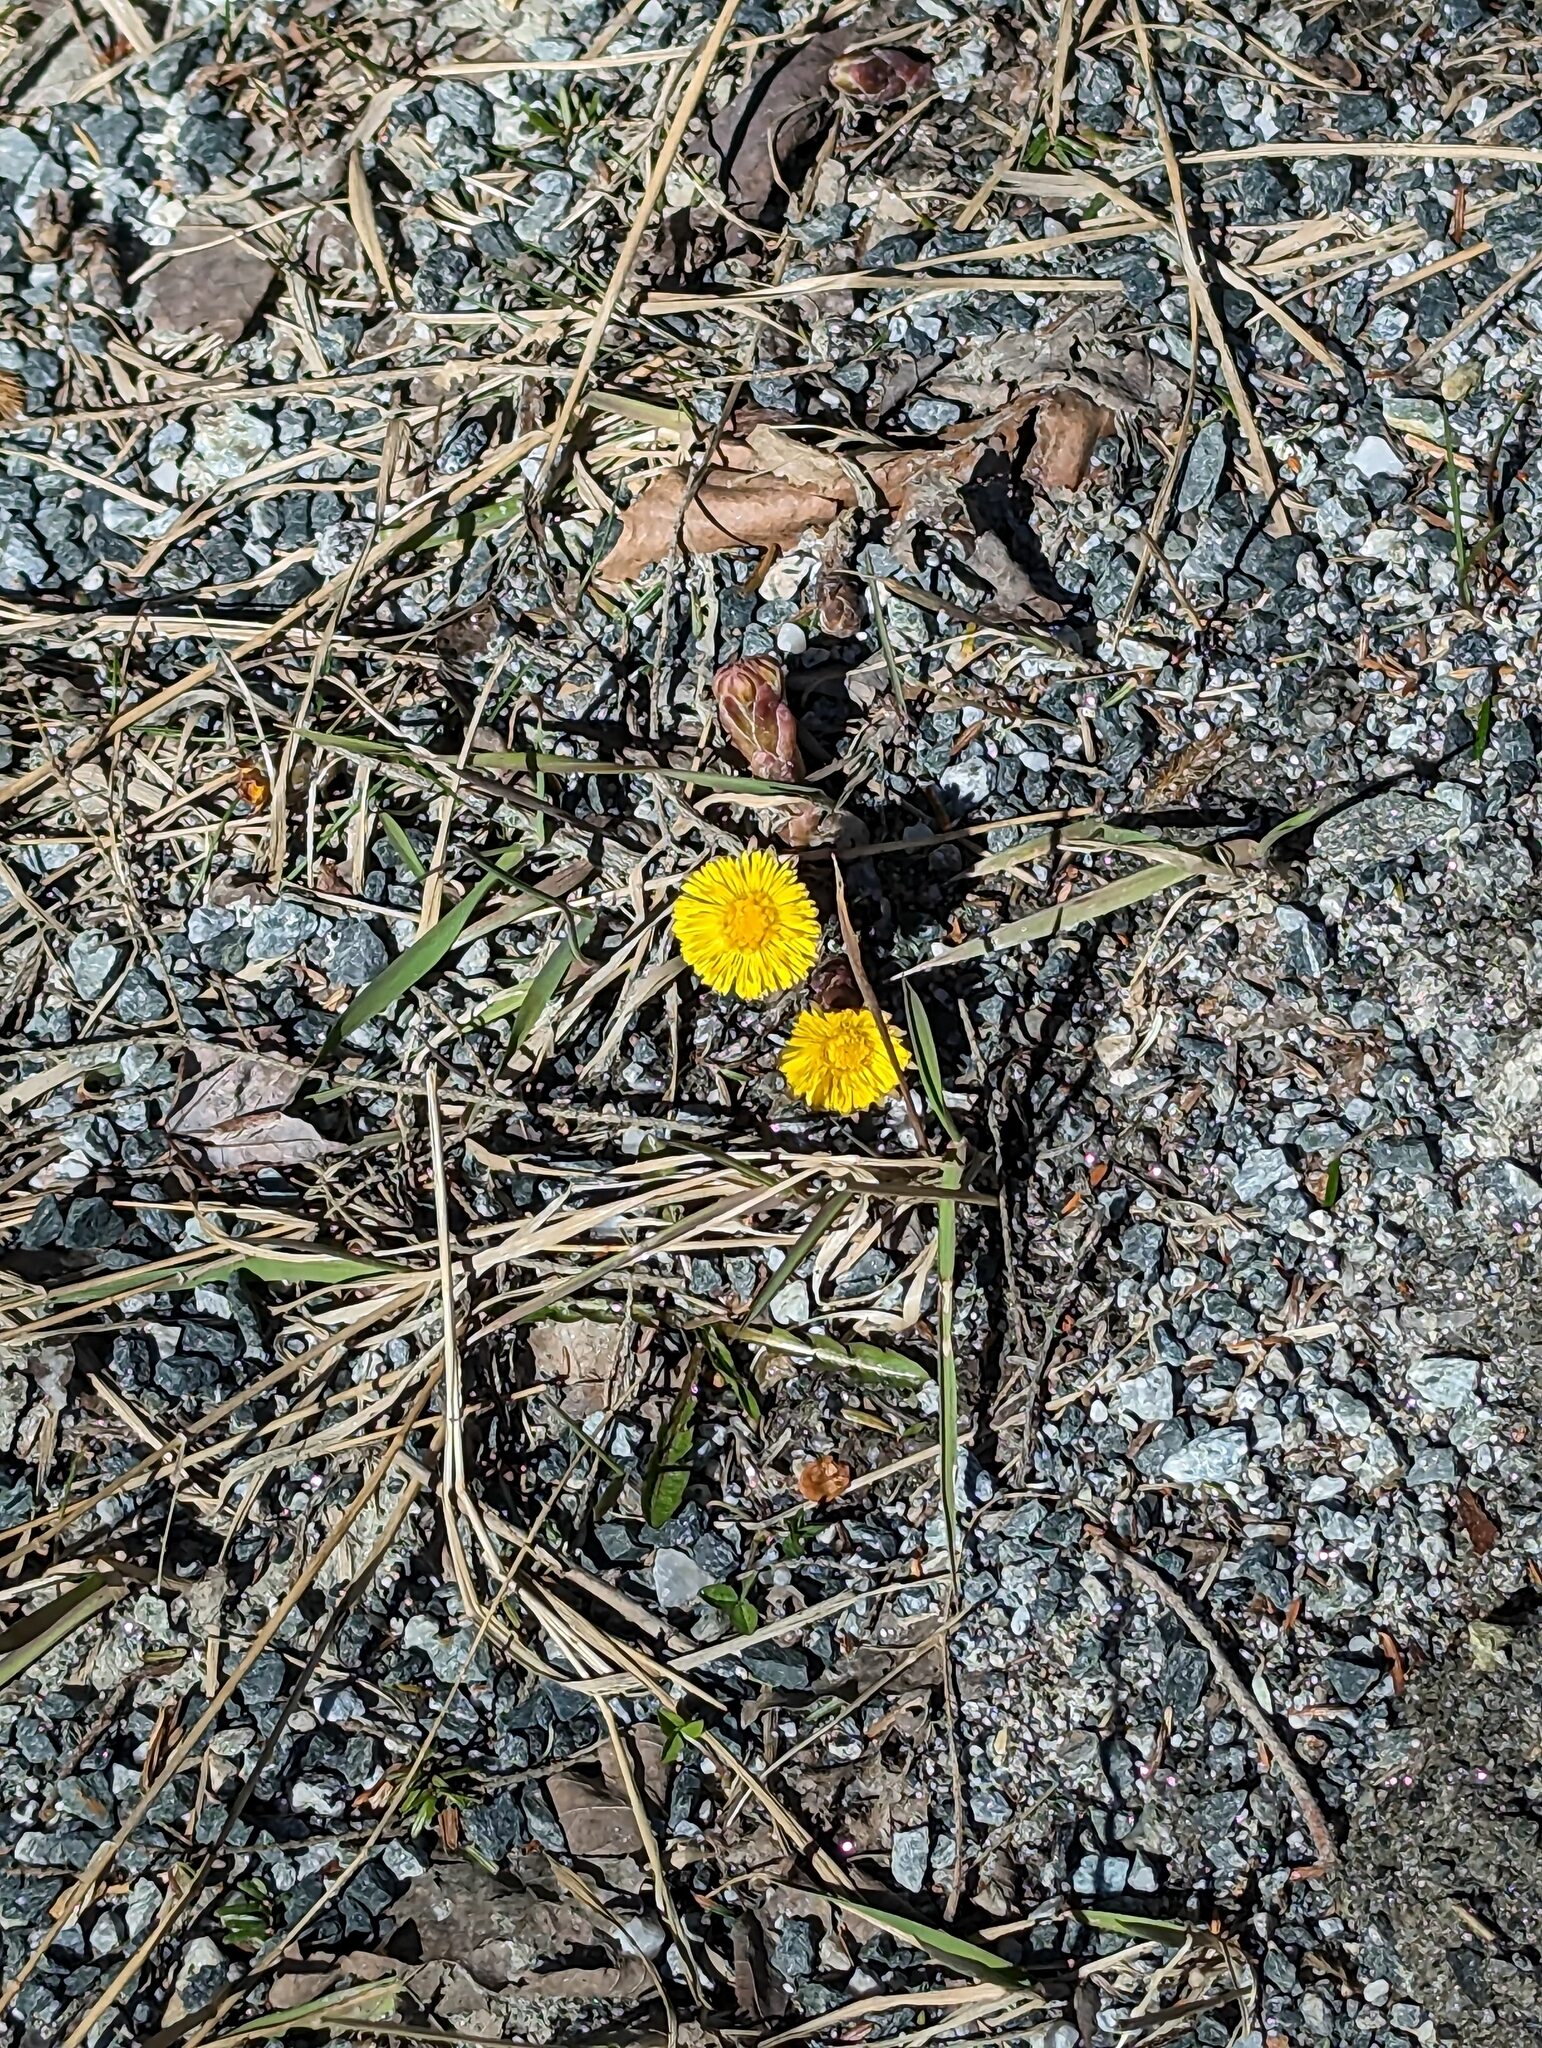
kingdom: Plantae
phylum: Tracheophyta
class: Magnoliopsida
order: Asterales
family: Asteraceae
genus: Tussilago
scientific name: Tussilago farfara
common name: Coltsfoot
